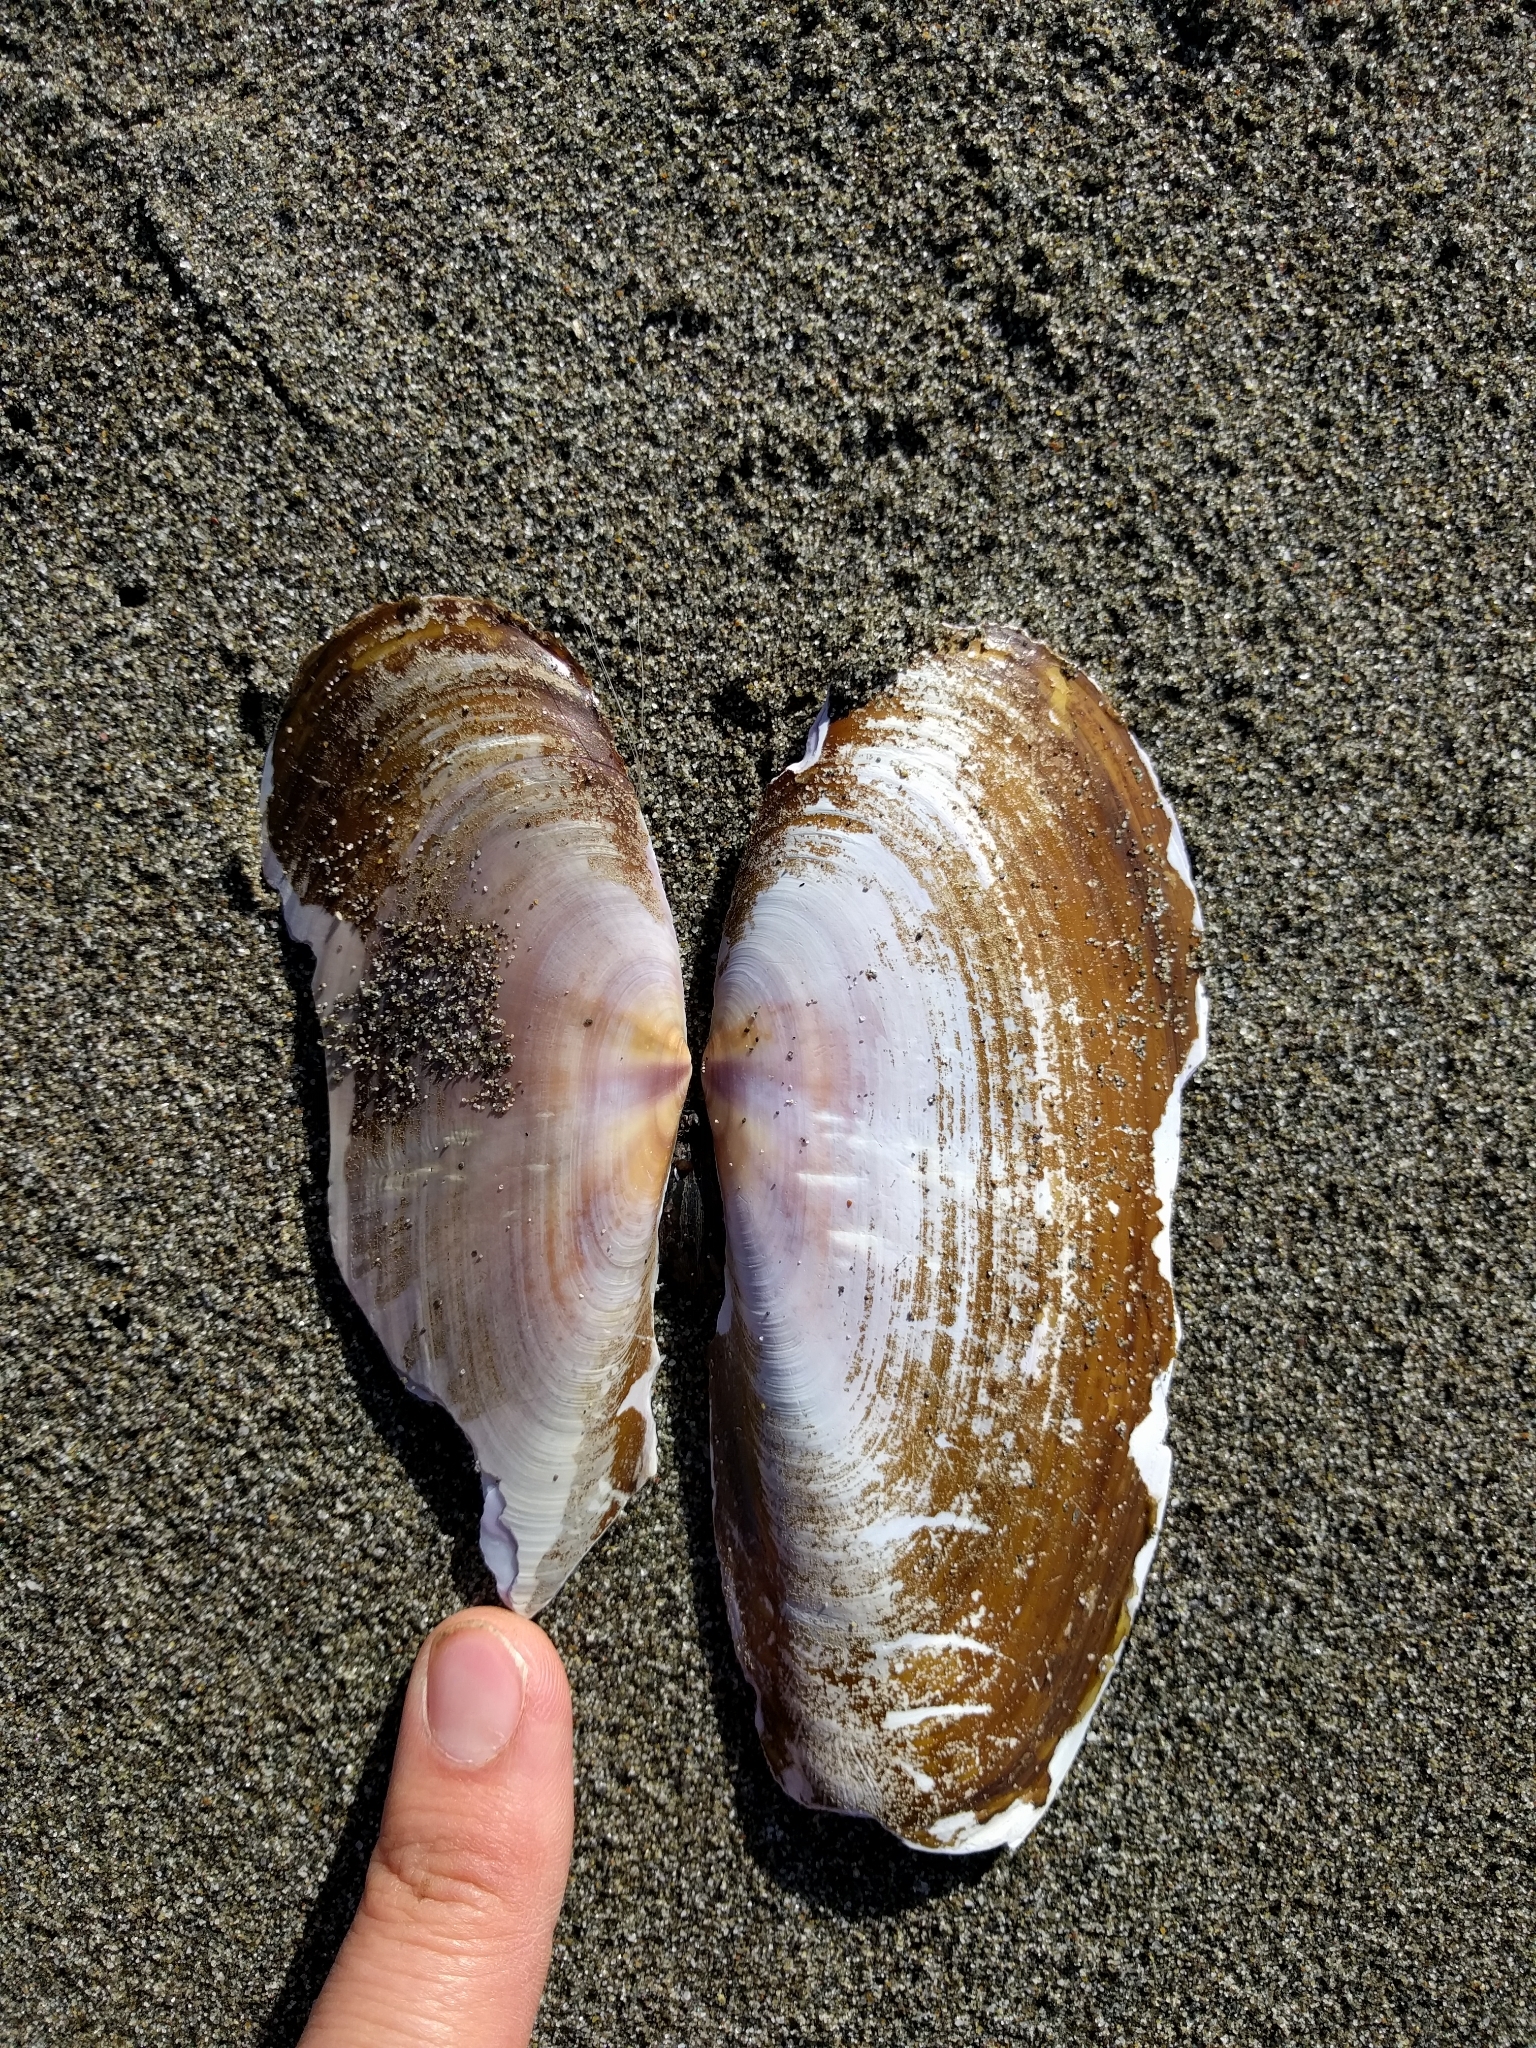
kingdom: Animalia
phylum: Mollusca
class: Bivalvia
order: Adapedonta
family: Pharidae
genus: Siliqua
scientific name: Siliqua patula
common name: Pacific razor clam
